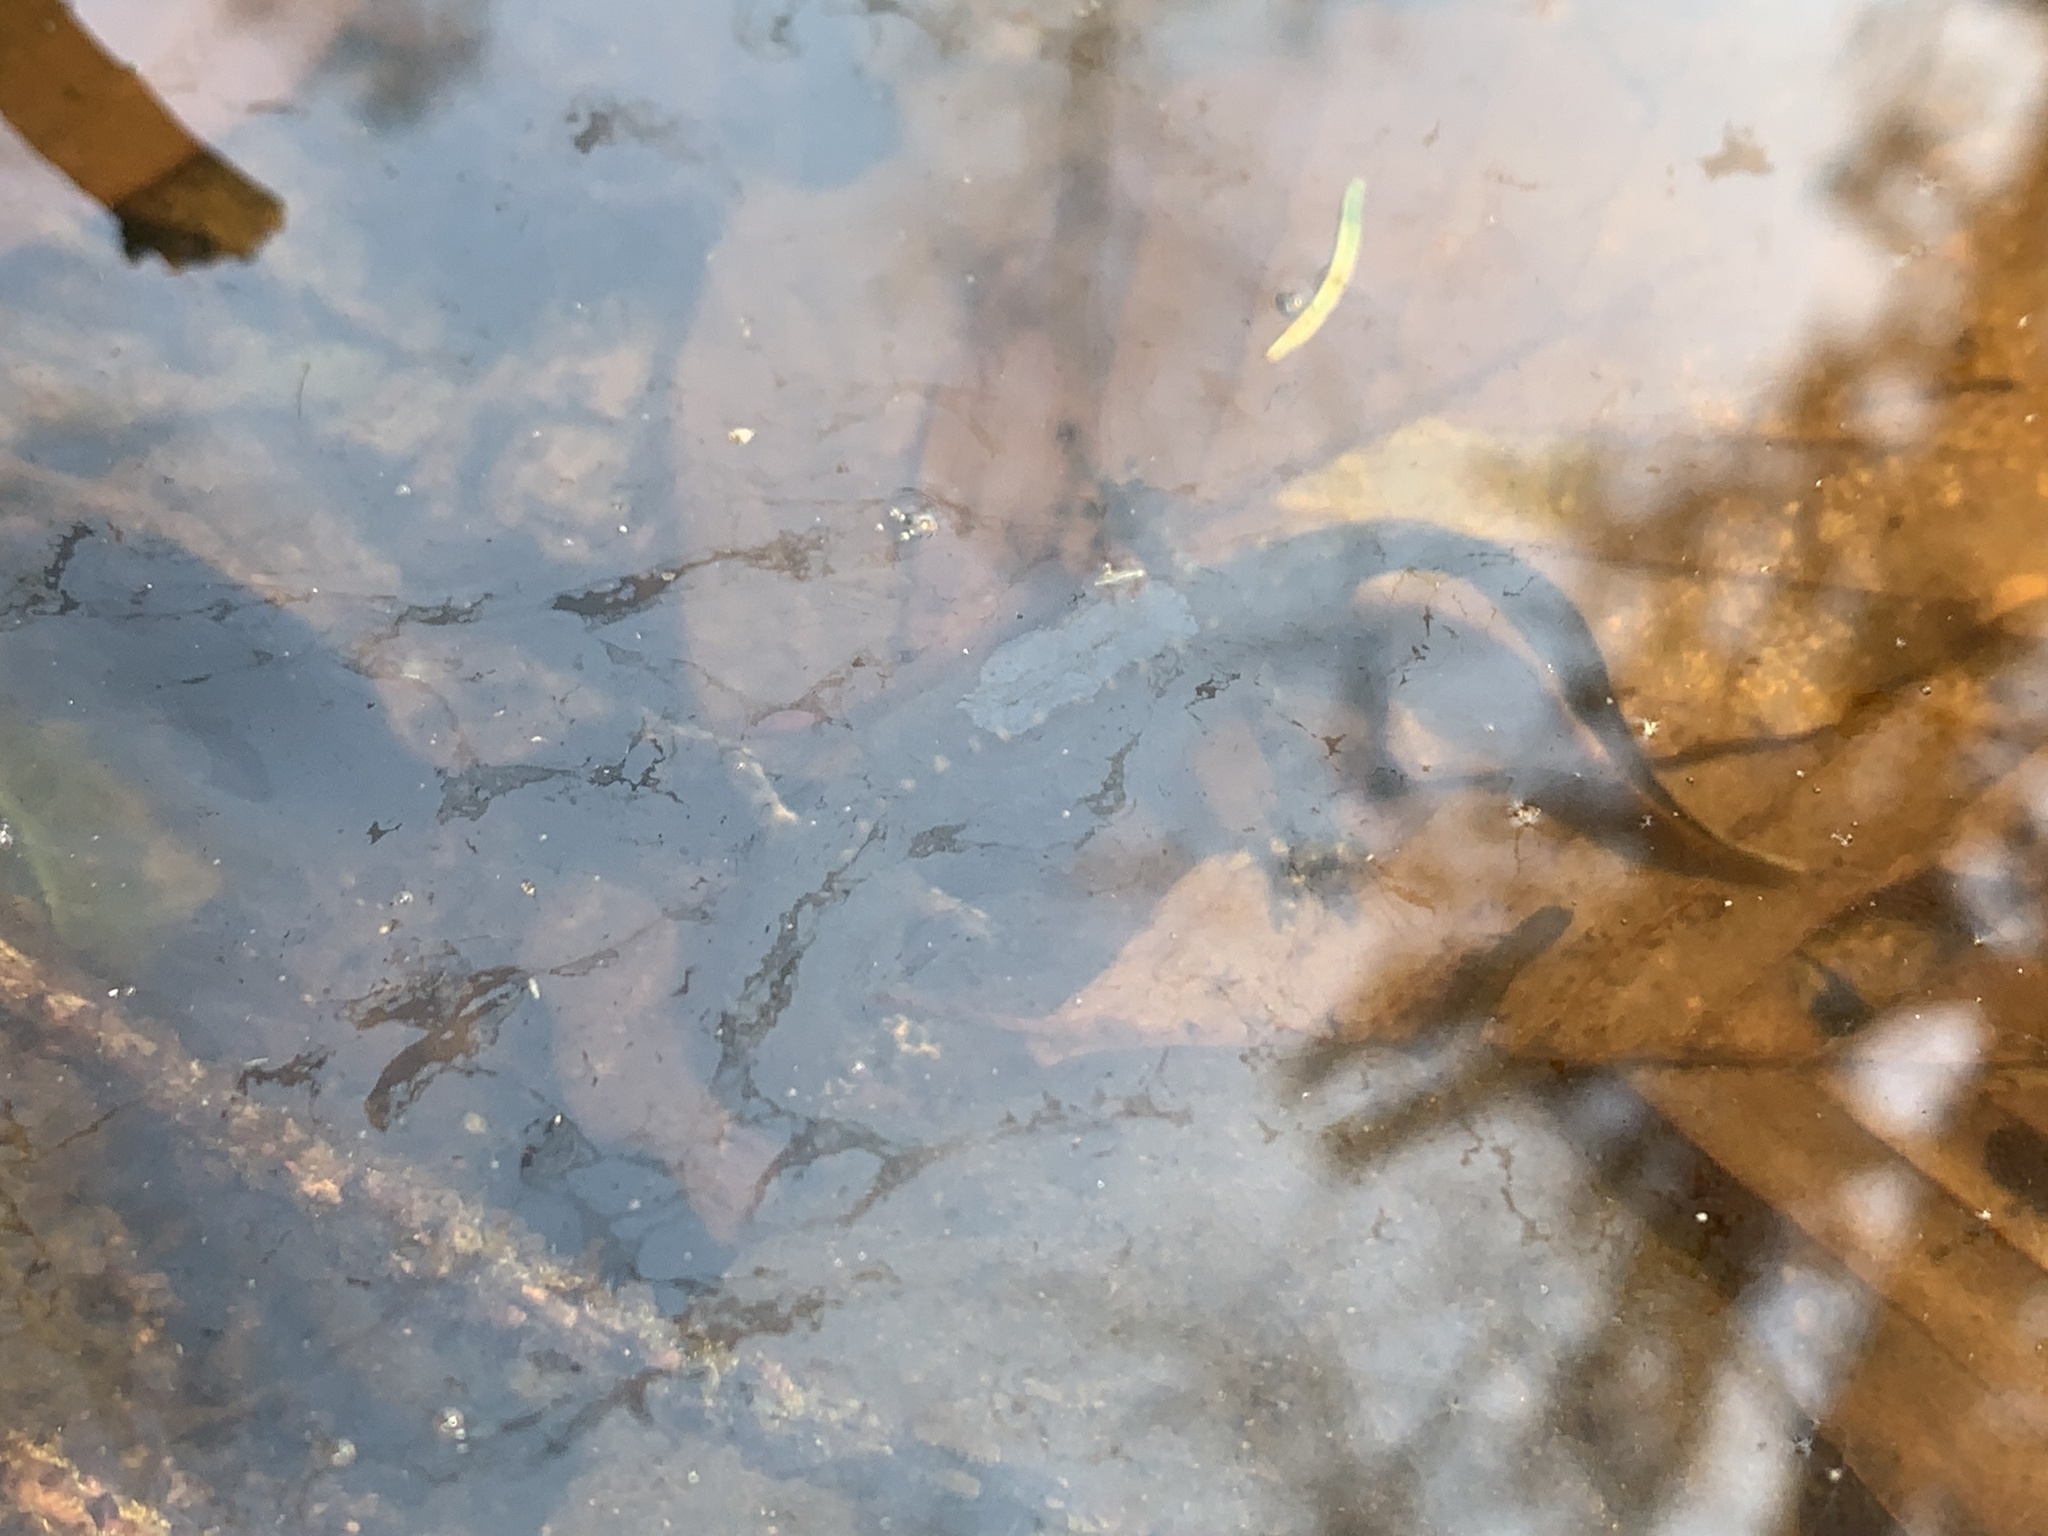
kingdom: Animalia
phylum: Chordata
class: Amphibia
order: Caudata
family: Salamandridae
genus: Ichthyosaura
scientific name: Ichthyosaura alpestris
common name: Alpine newt
